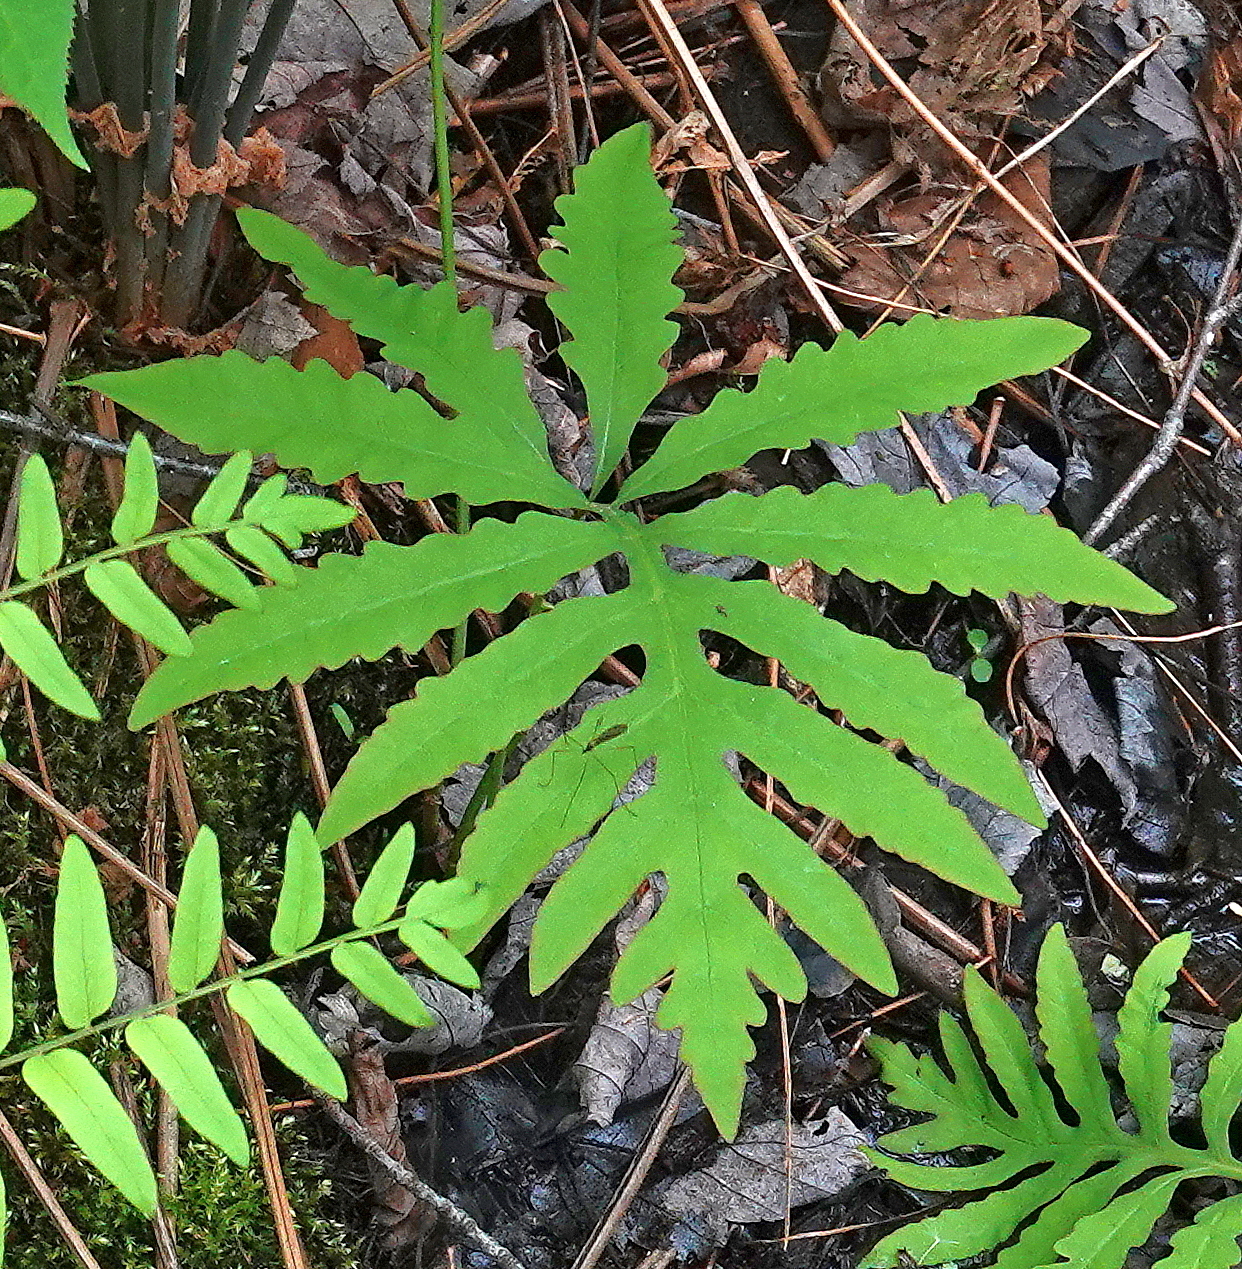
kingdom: Plantae
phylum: Tracheophyta
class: Polypodiopsida
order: Polypodiales
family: Onocleaceae
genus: Onoclea
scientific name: Onoclea sensibilis
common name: Sensitive fern
